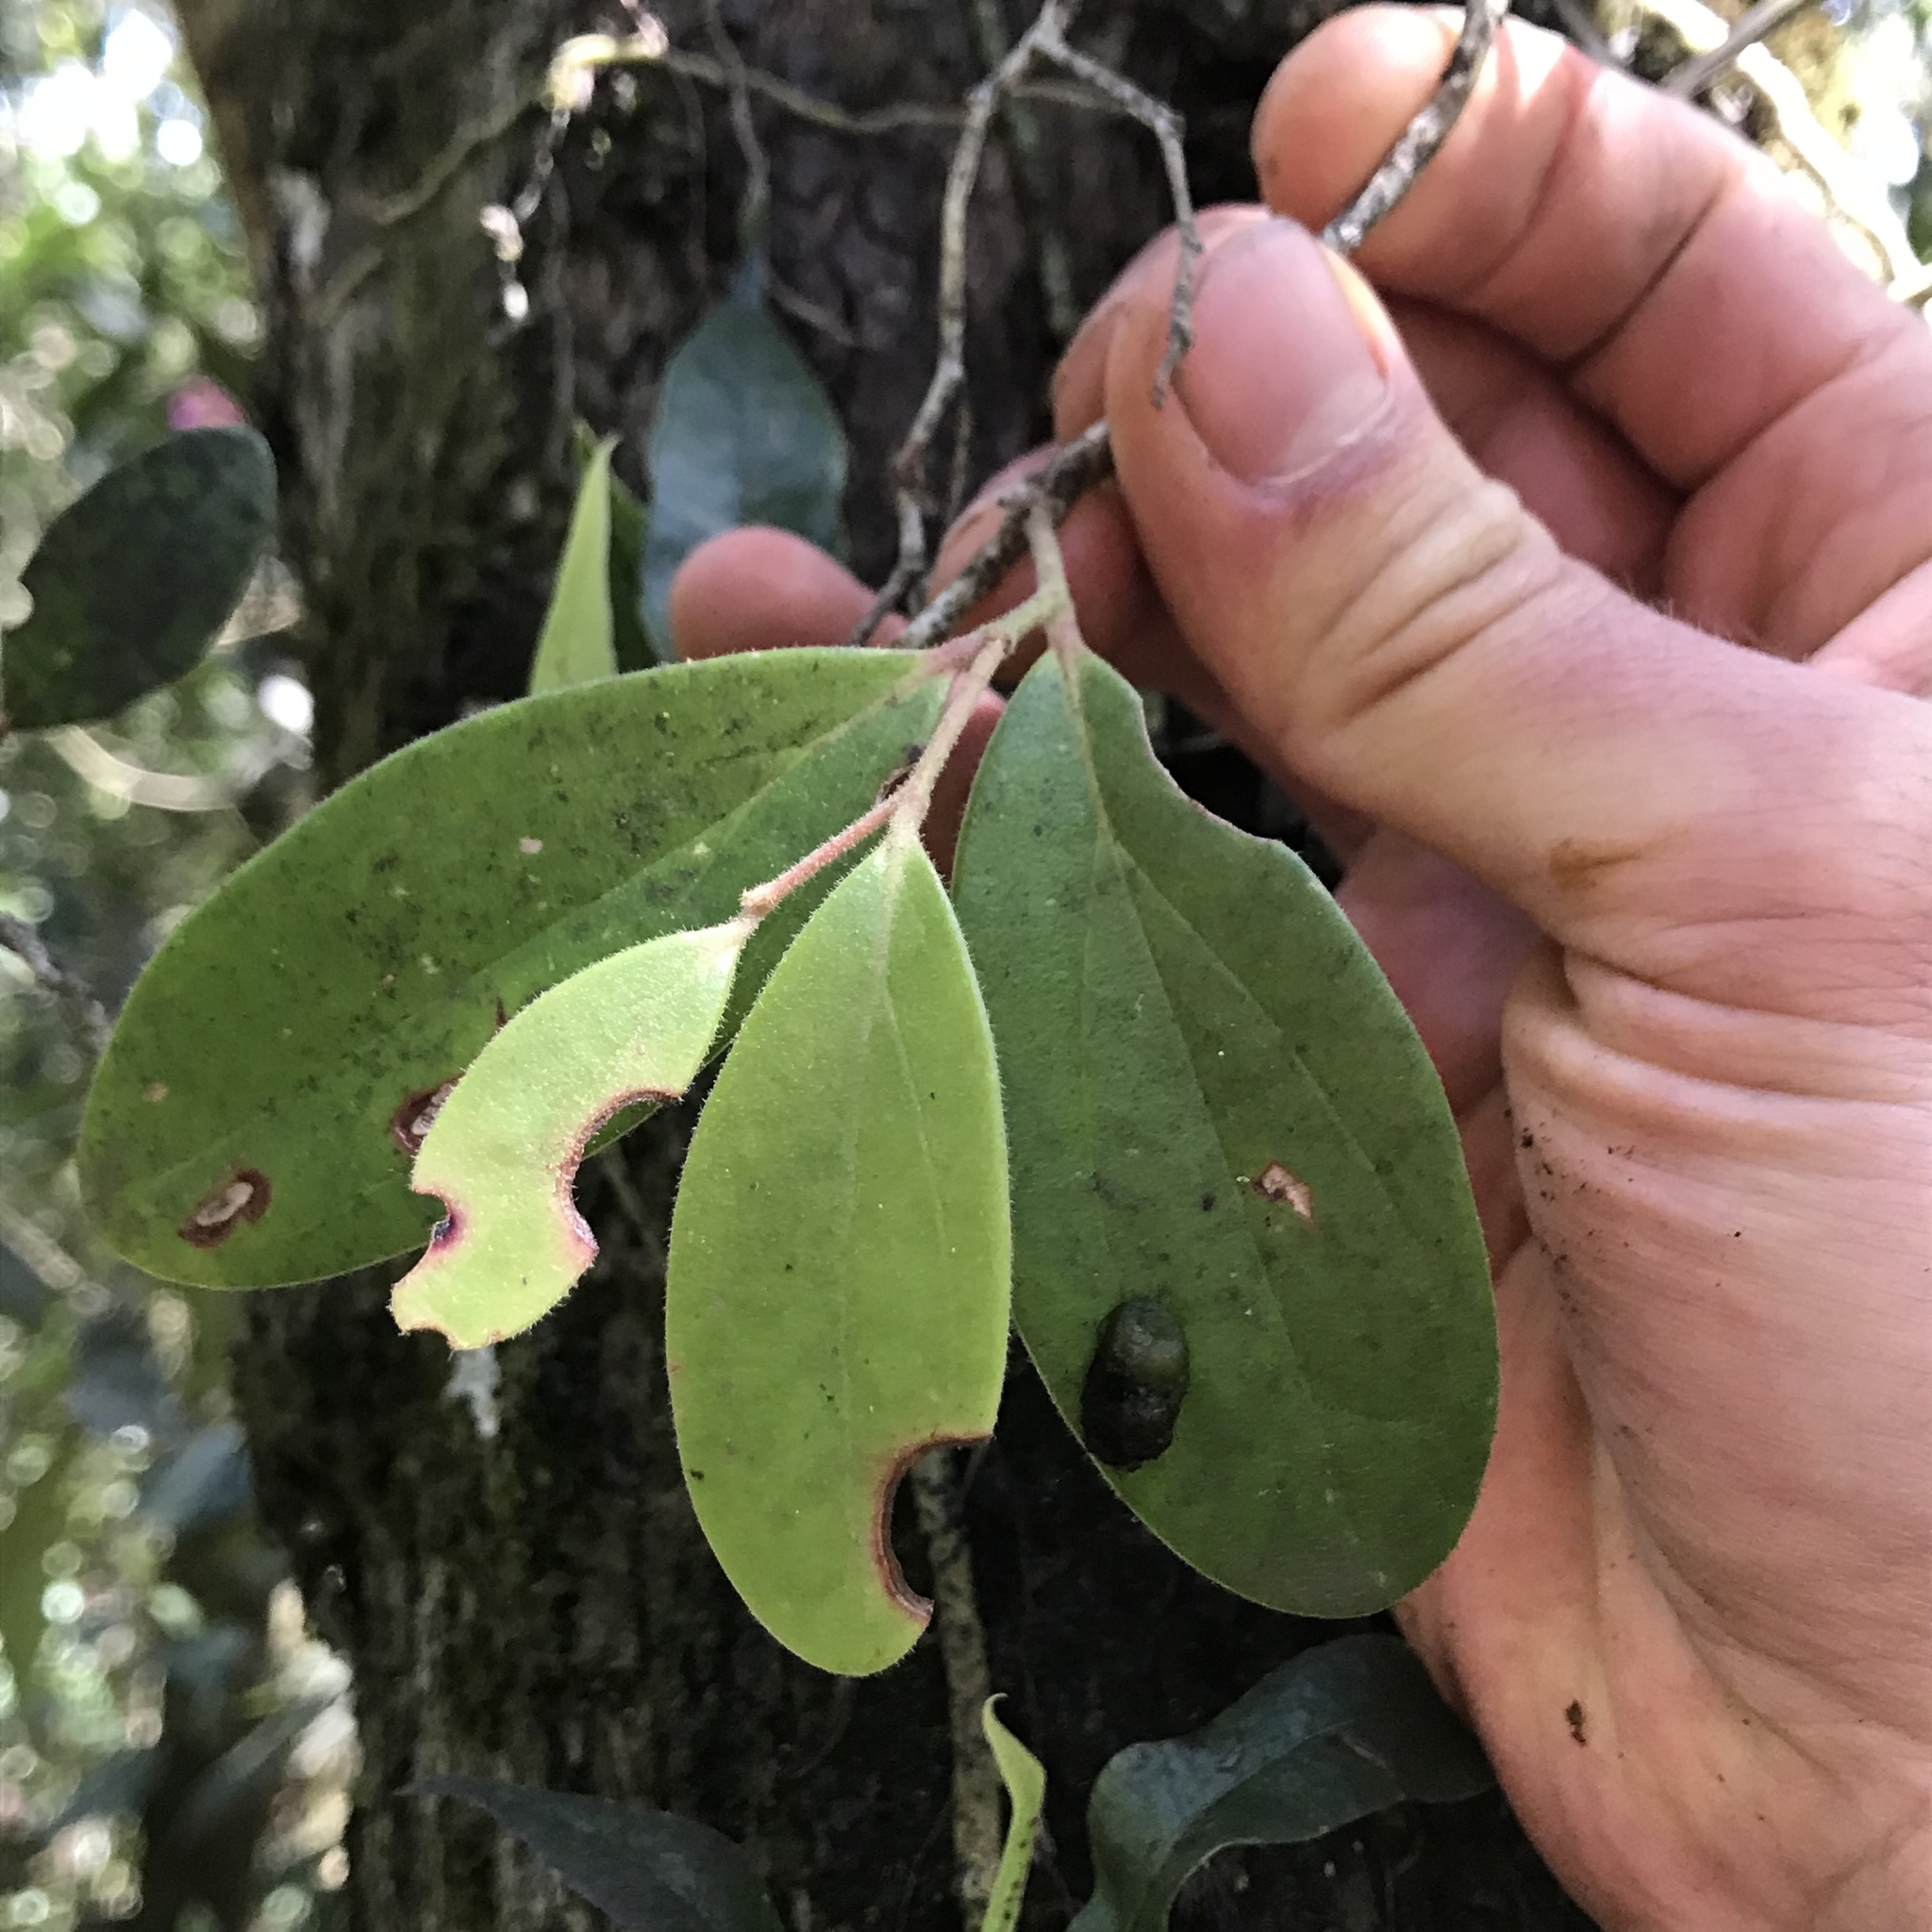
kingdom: Plantae
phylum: Tracheophyta
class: Magnoliopsida
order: Ericales
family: Ericaceae
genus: Macleania
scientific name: Macleania rupestris
